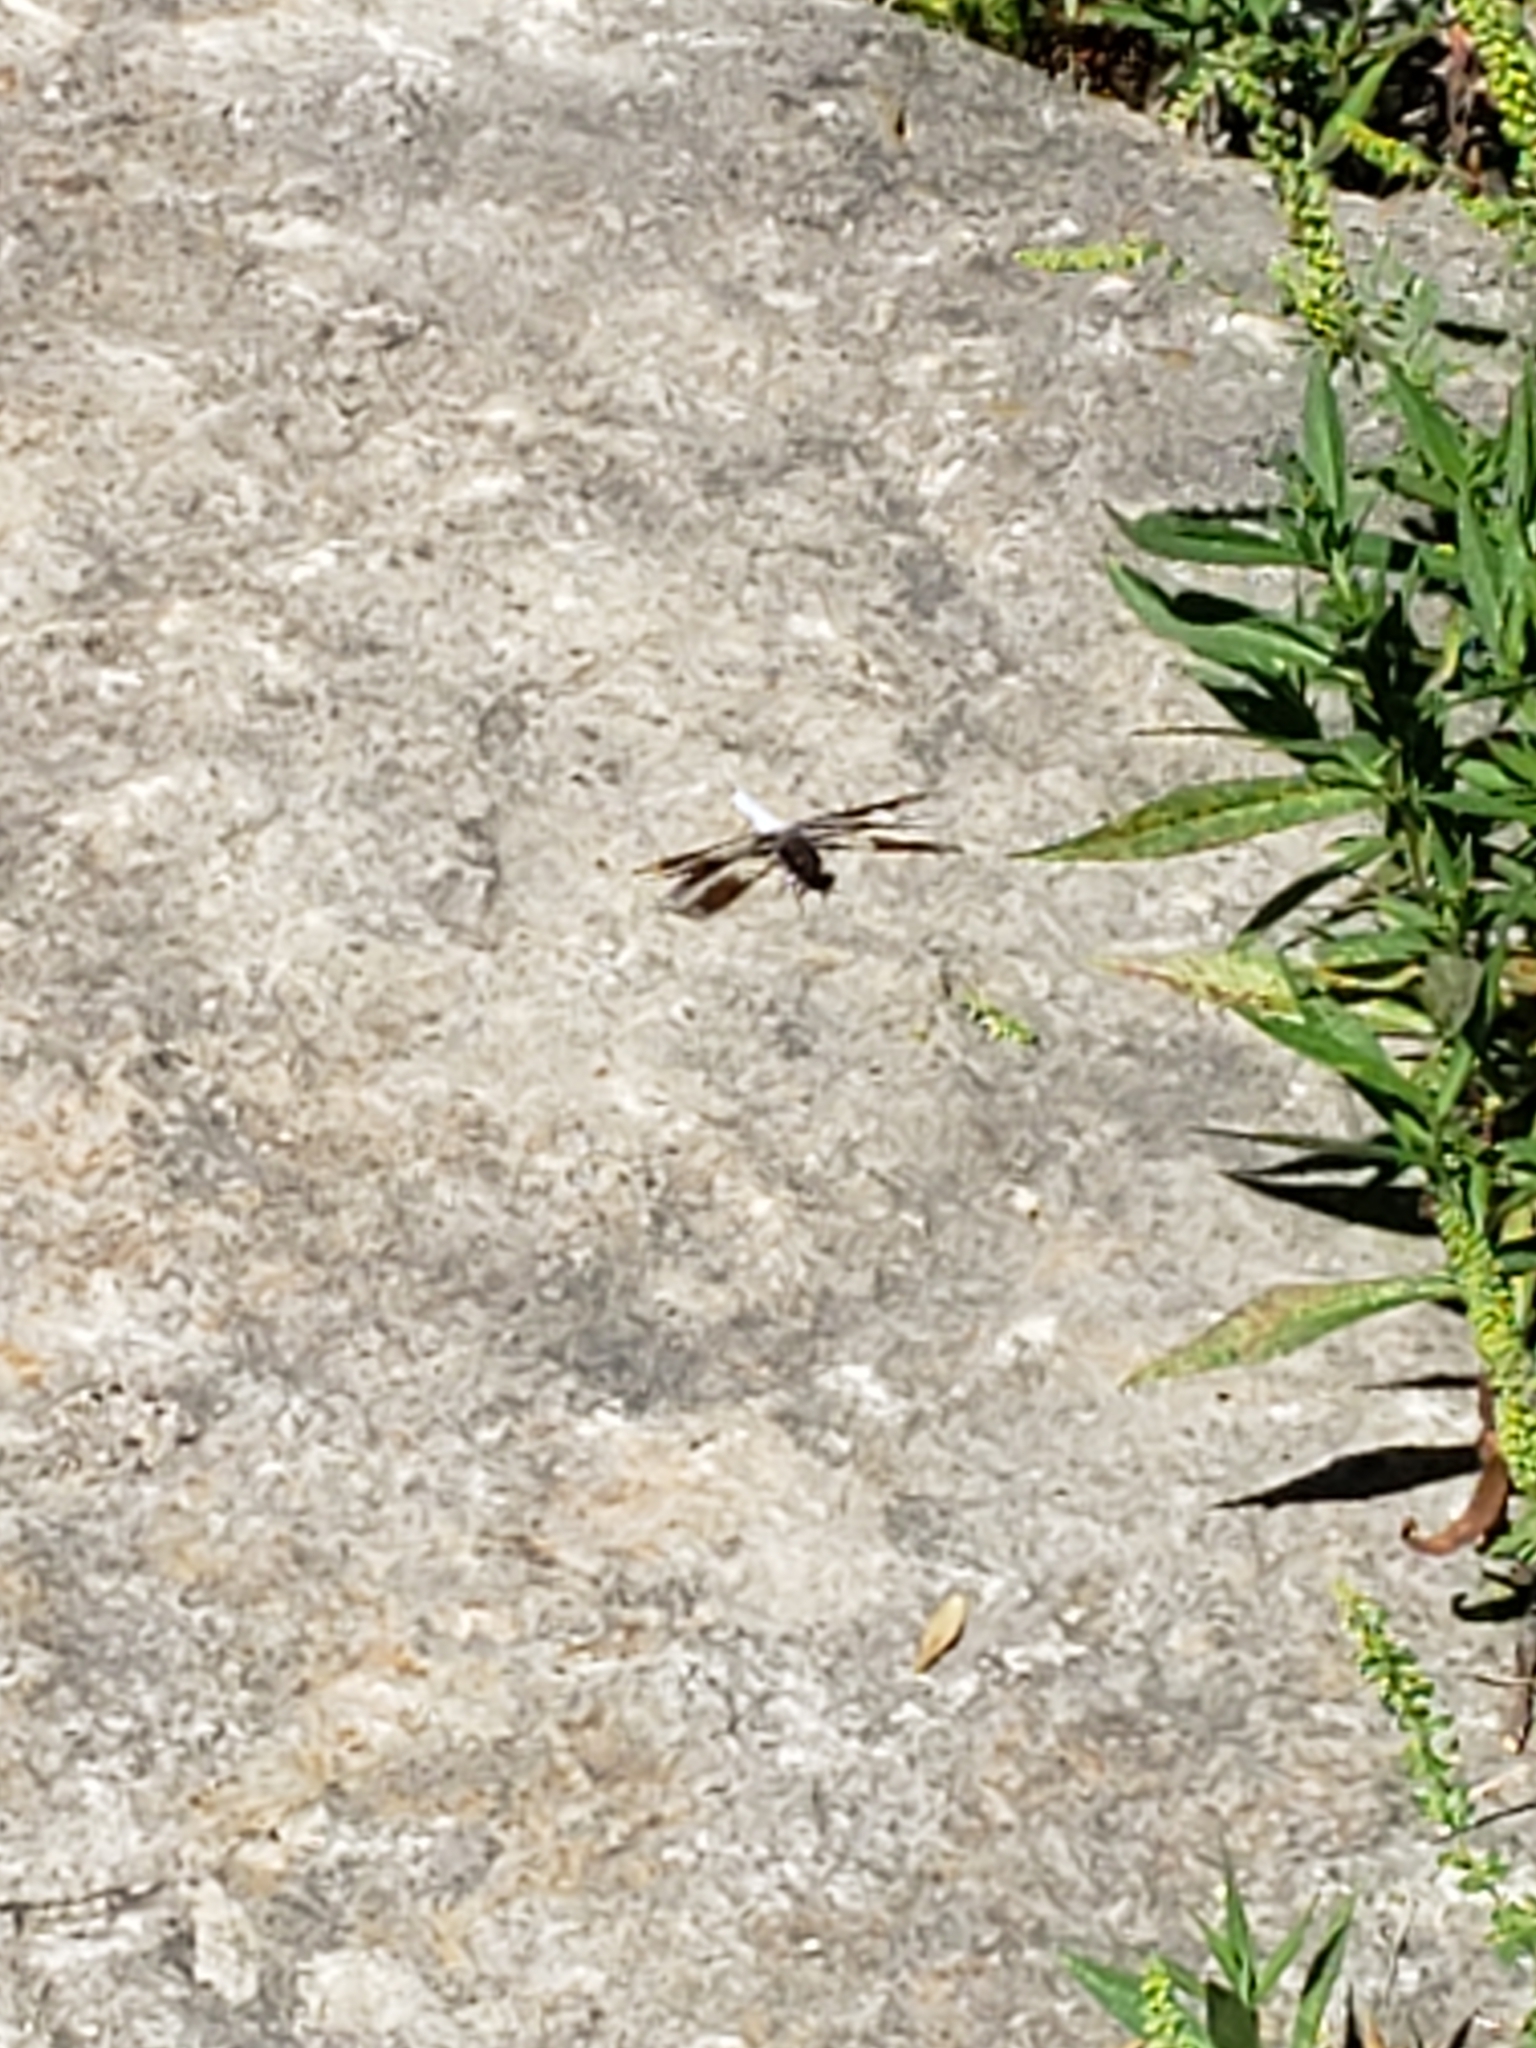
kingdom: Animalia
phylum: Arthropoda
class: Insecta
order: Odonata
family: Libellulidae
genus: Plathemis
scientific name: Plathemis lydia
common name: Common whitetail
